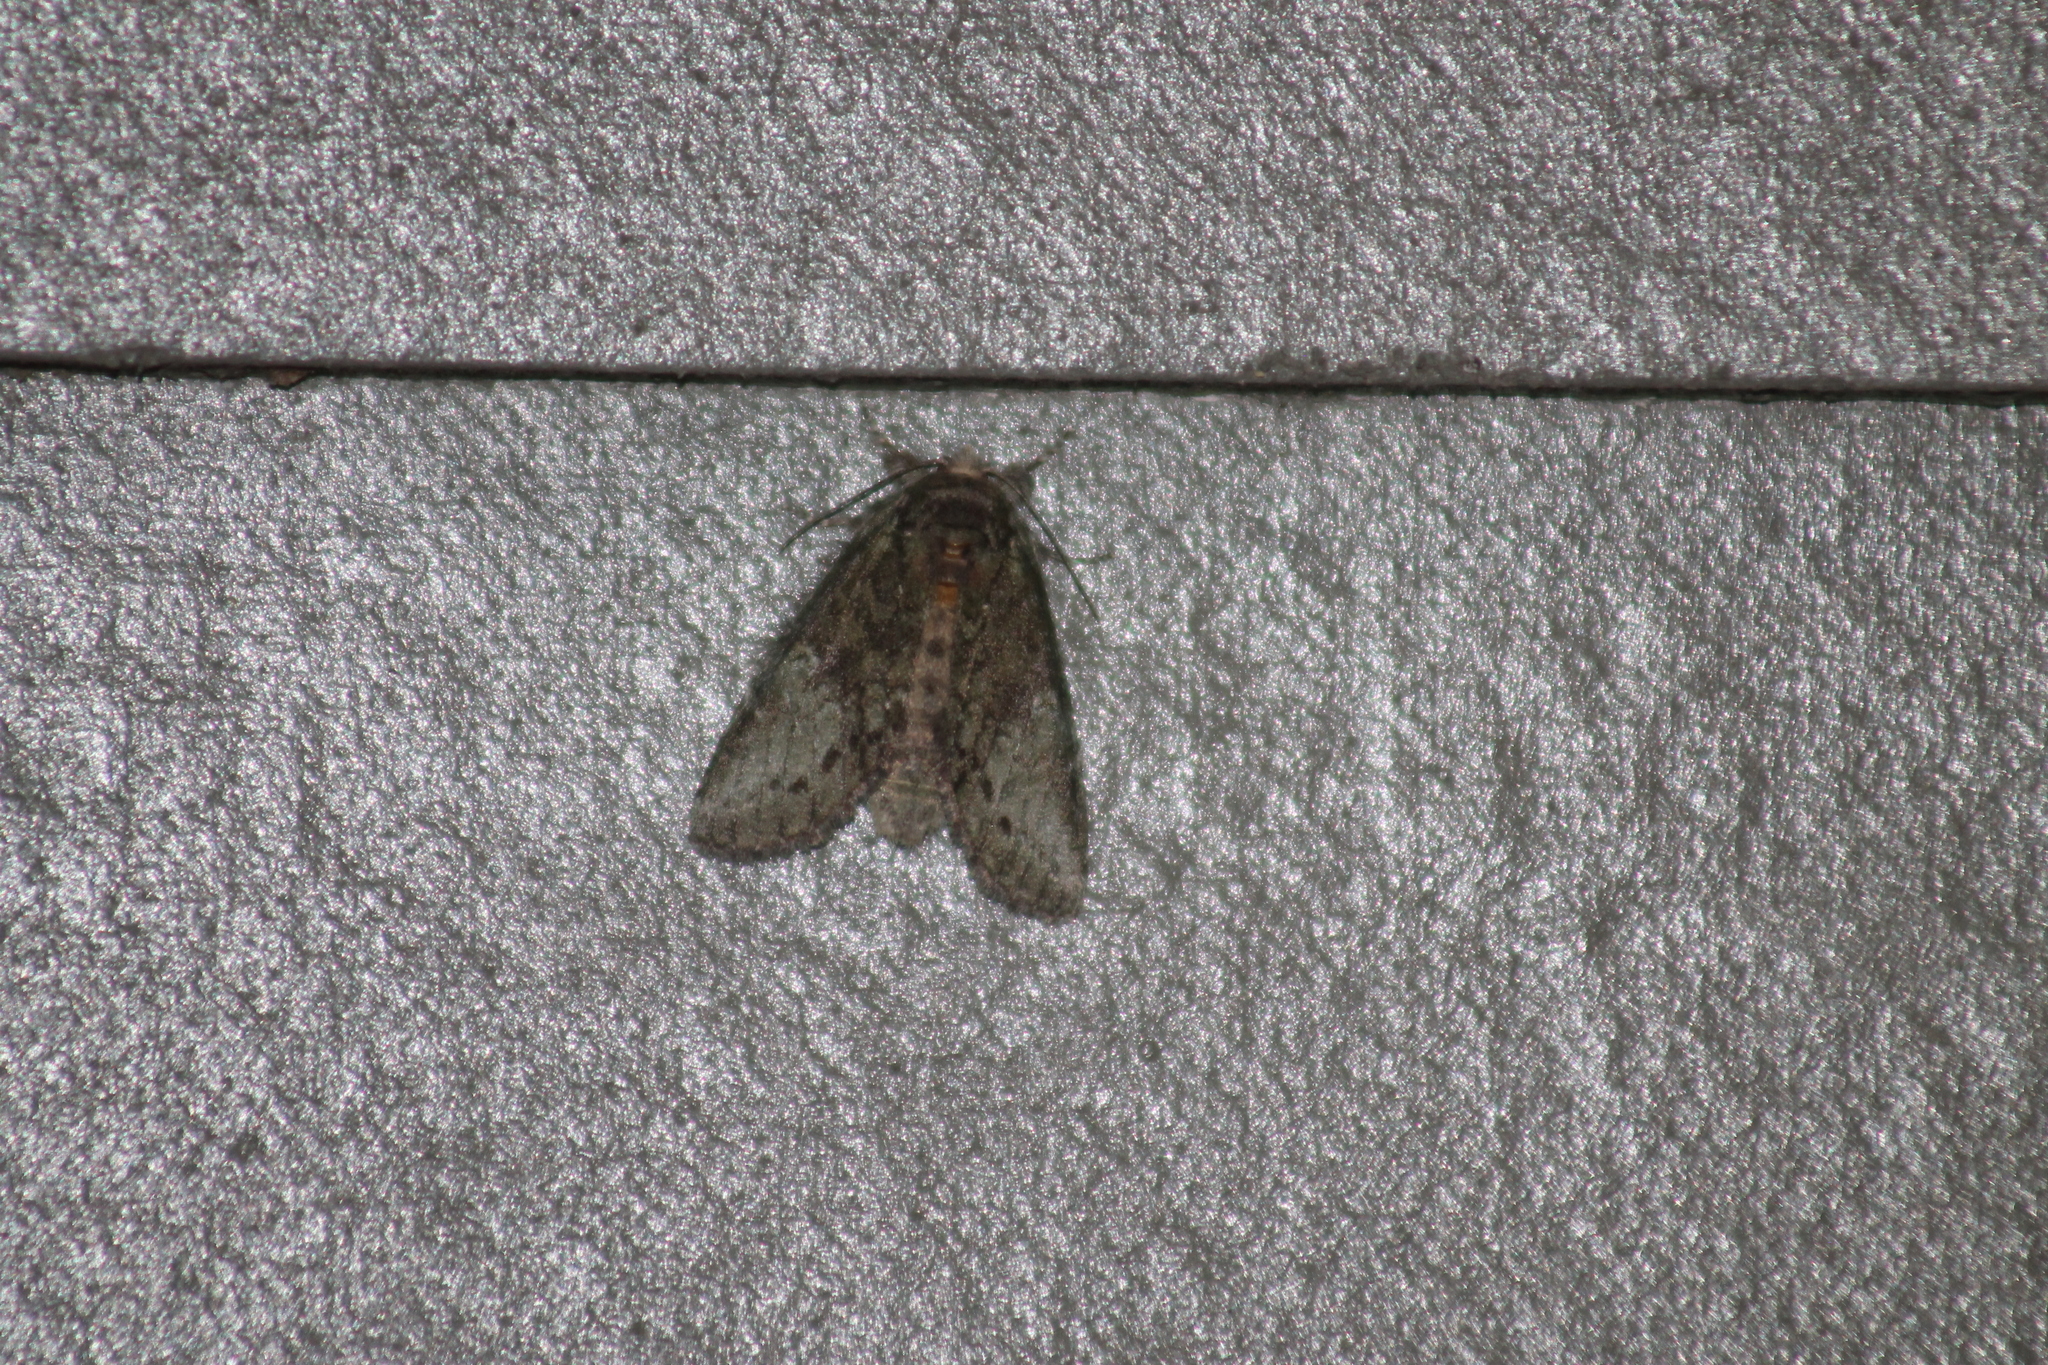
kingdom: Animalia
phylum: Arthropoda
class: Insecta
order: Lepidoptera
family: Notodontidae
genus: Disphragis
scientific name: Disphragis Cecrita guttivitta
